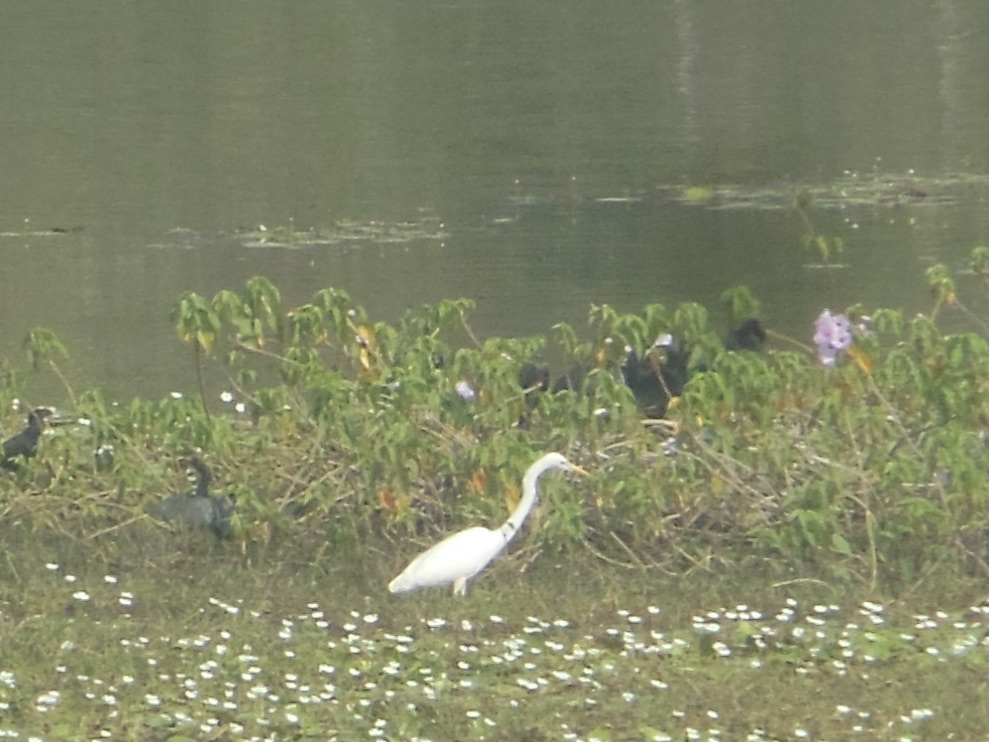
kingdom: Animalia
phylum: Chordata
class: Aves
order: Pelecaniformes
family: Ardeidae
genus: Ardea
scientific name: Ardea alba
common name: Great egret
